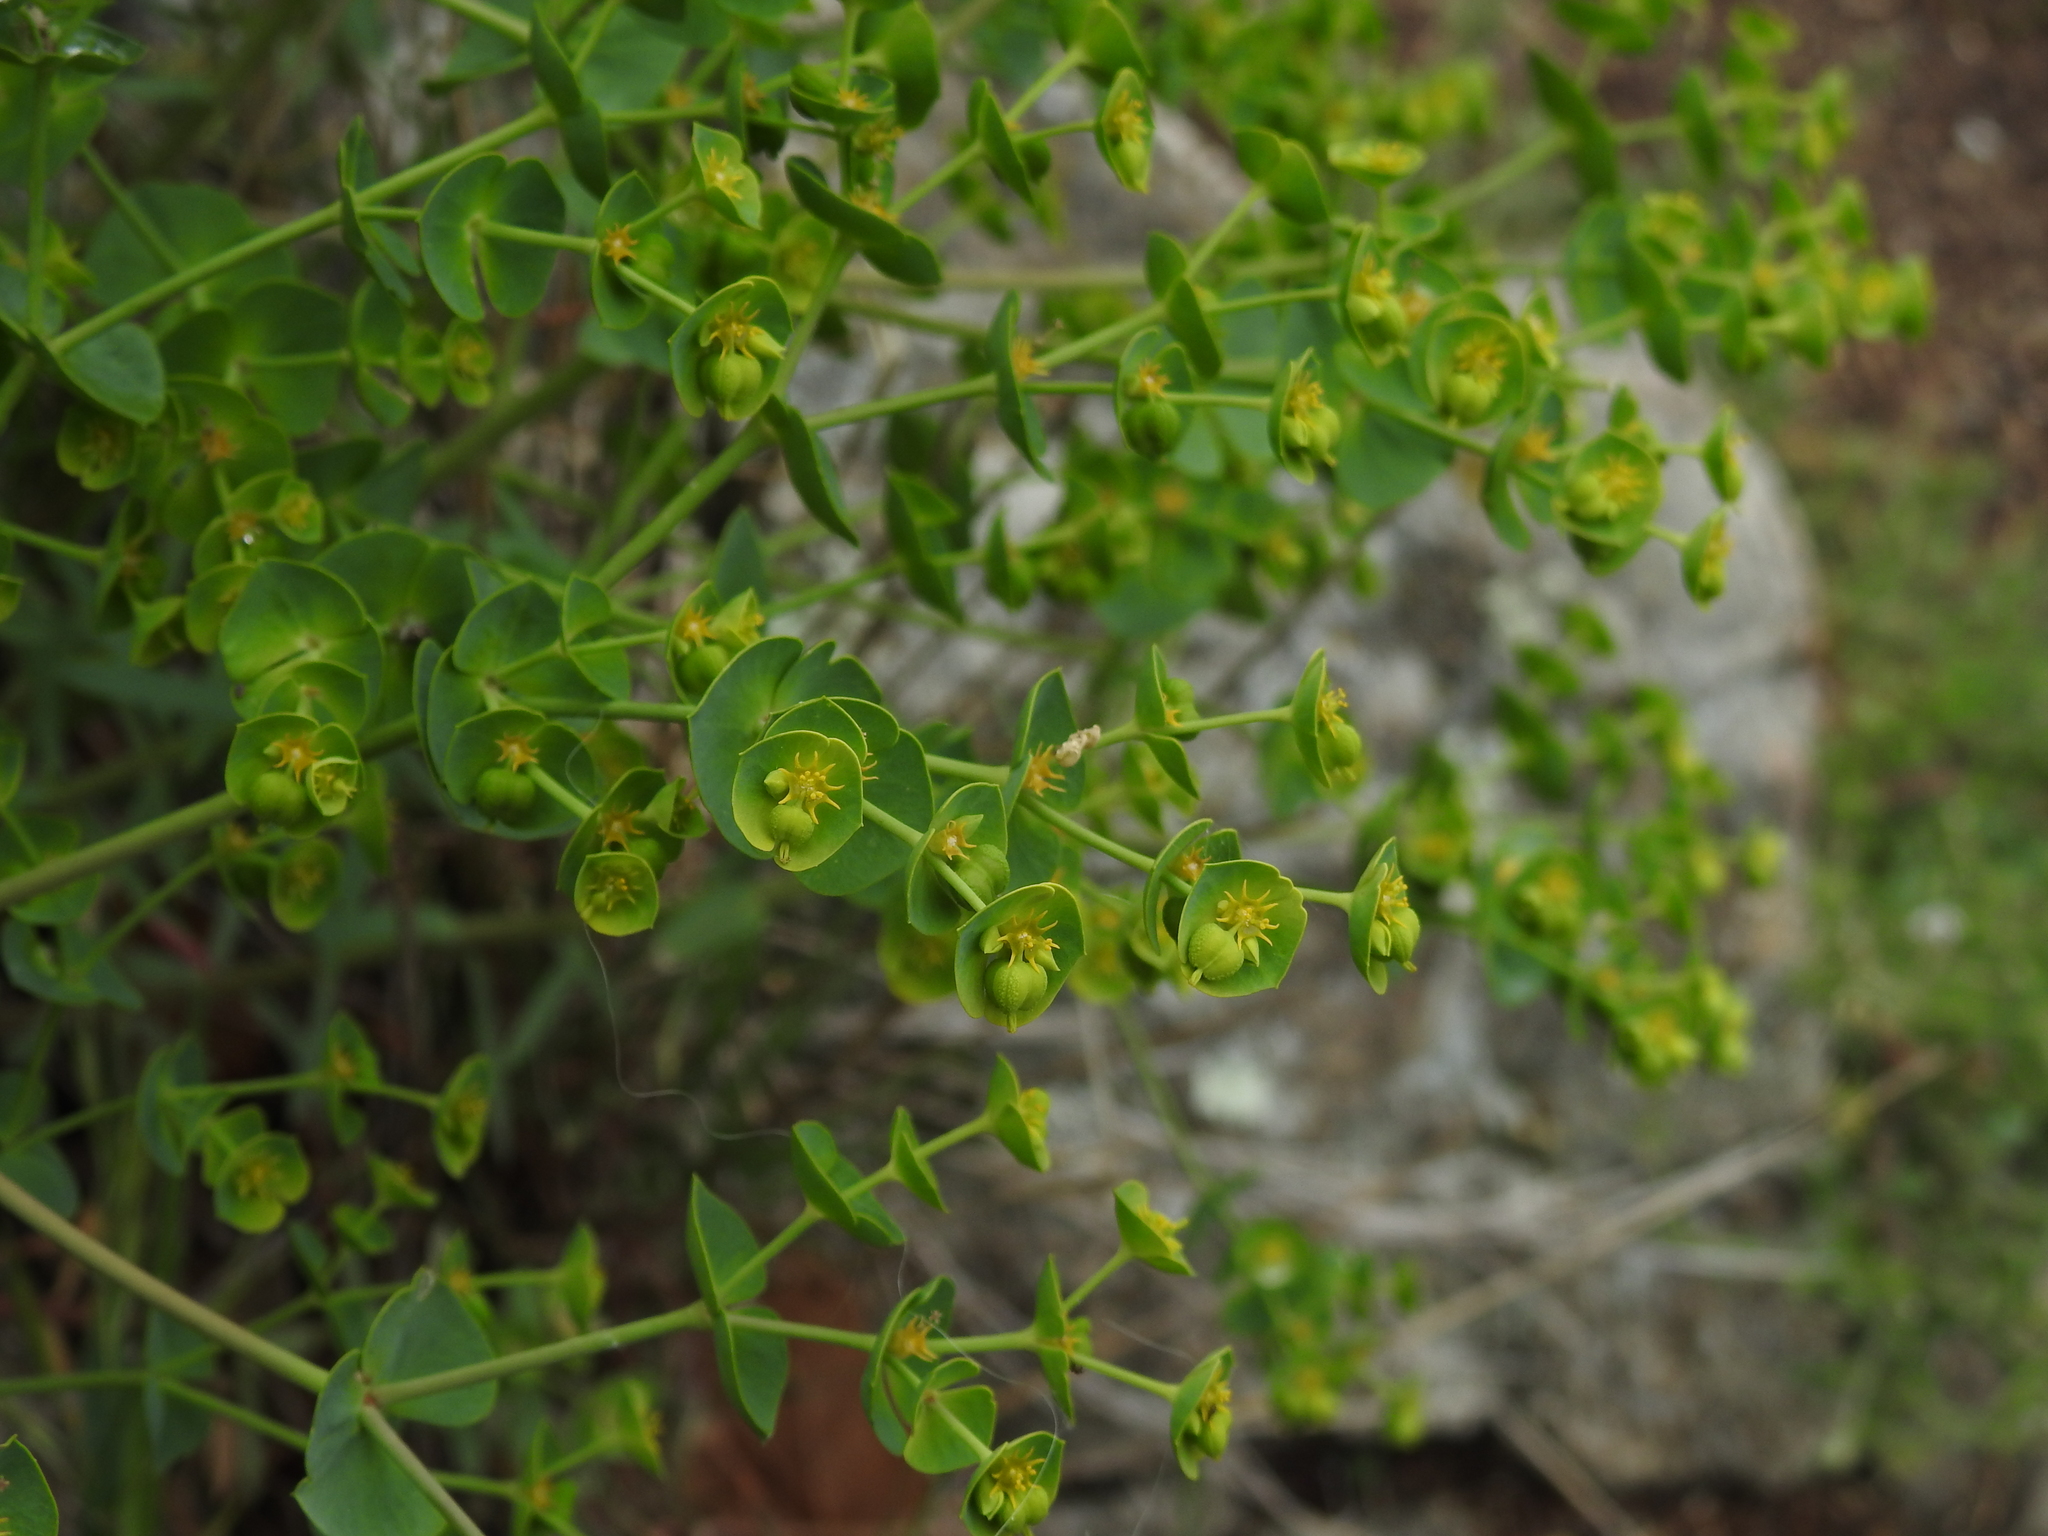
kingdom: Plantae
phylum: Tracheophyta
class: Magnoliopsida
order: Malpighiales
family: Euphorbiaceae
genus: Euphorbia
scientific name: Euphorbia segetalis
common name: Corn spurge
